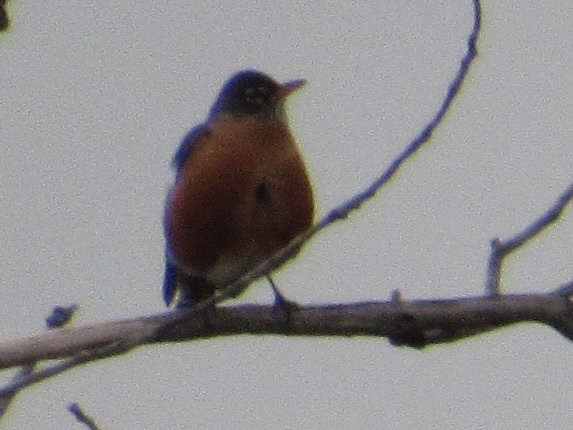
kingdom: Animalia
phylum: Chordata
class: Aves
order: Passeriformes
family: Turdidae
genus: Turdus
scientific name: Turdus migratorius
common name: American robin
